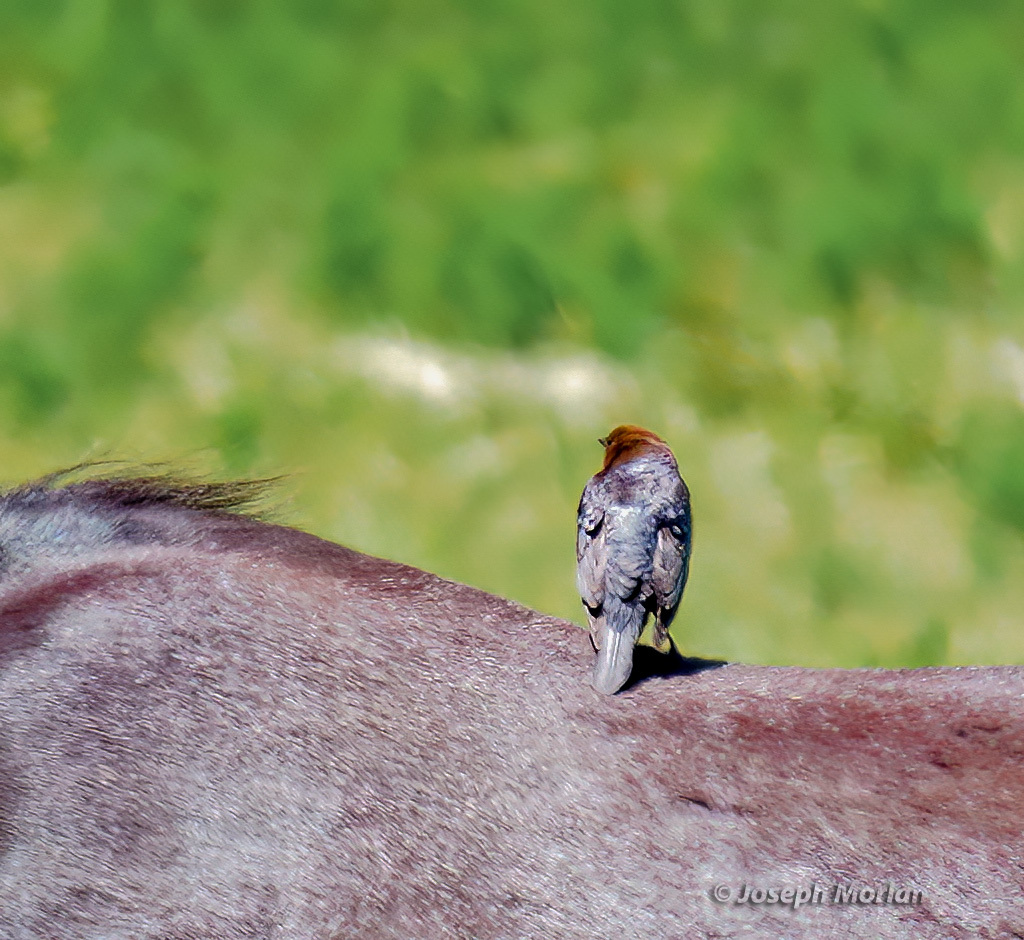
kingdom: Animalia
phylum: Chordata
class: Aves
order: Passeriformes
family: Icteridae
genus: Molothrus
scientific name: Molothrus ater
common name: Brown-headed cowbird
